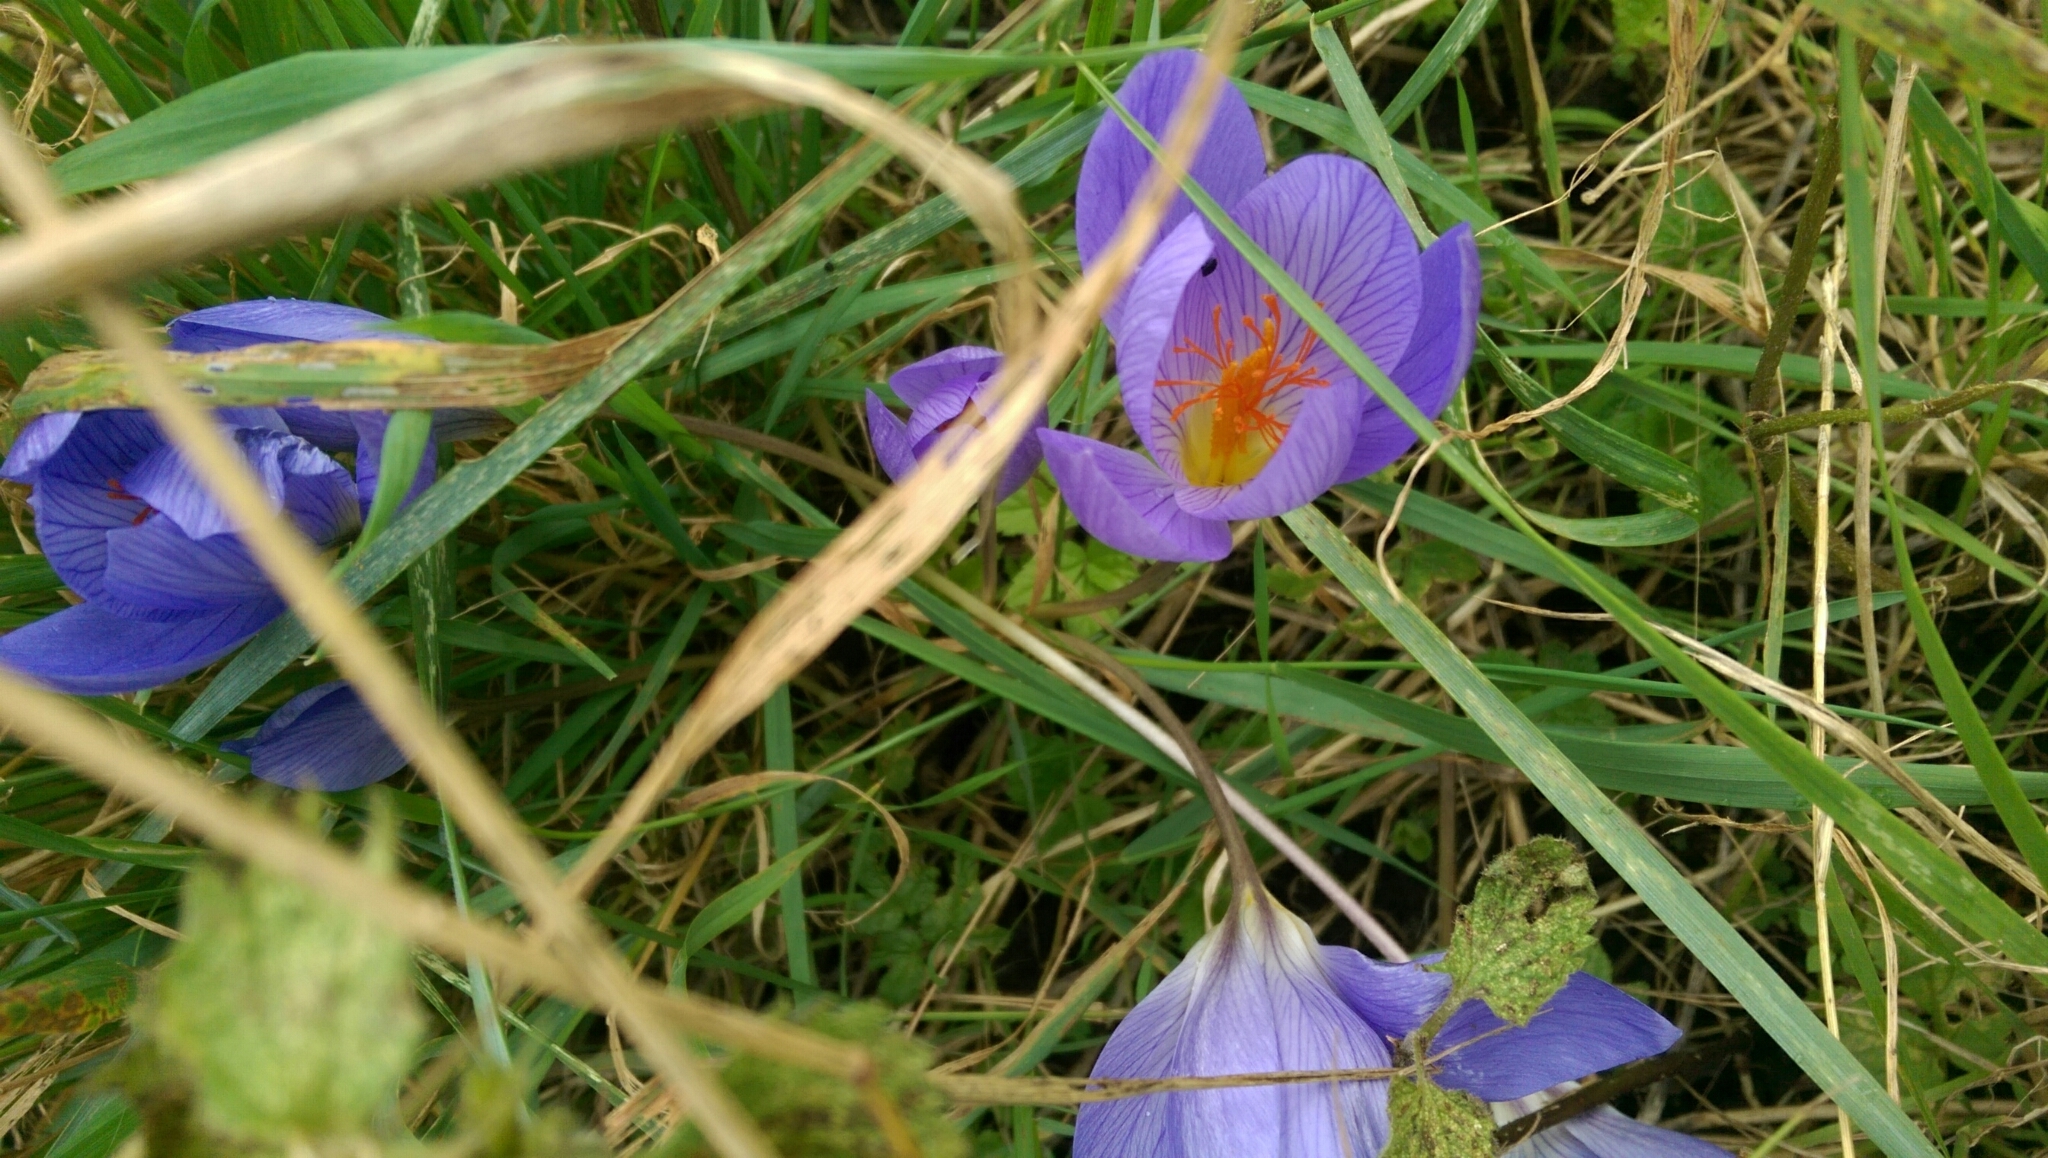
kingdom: Plantae
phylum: Tracheophyta
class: Liliopsida
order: Asparagales
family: Iridaceae
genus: Crocus
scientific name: Crocus speciosus
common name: Bieberstein's crocus
